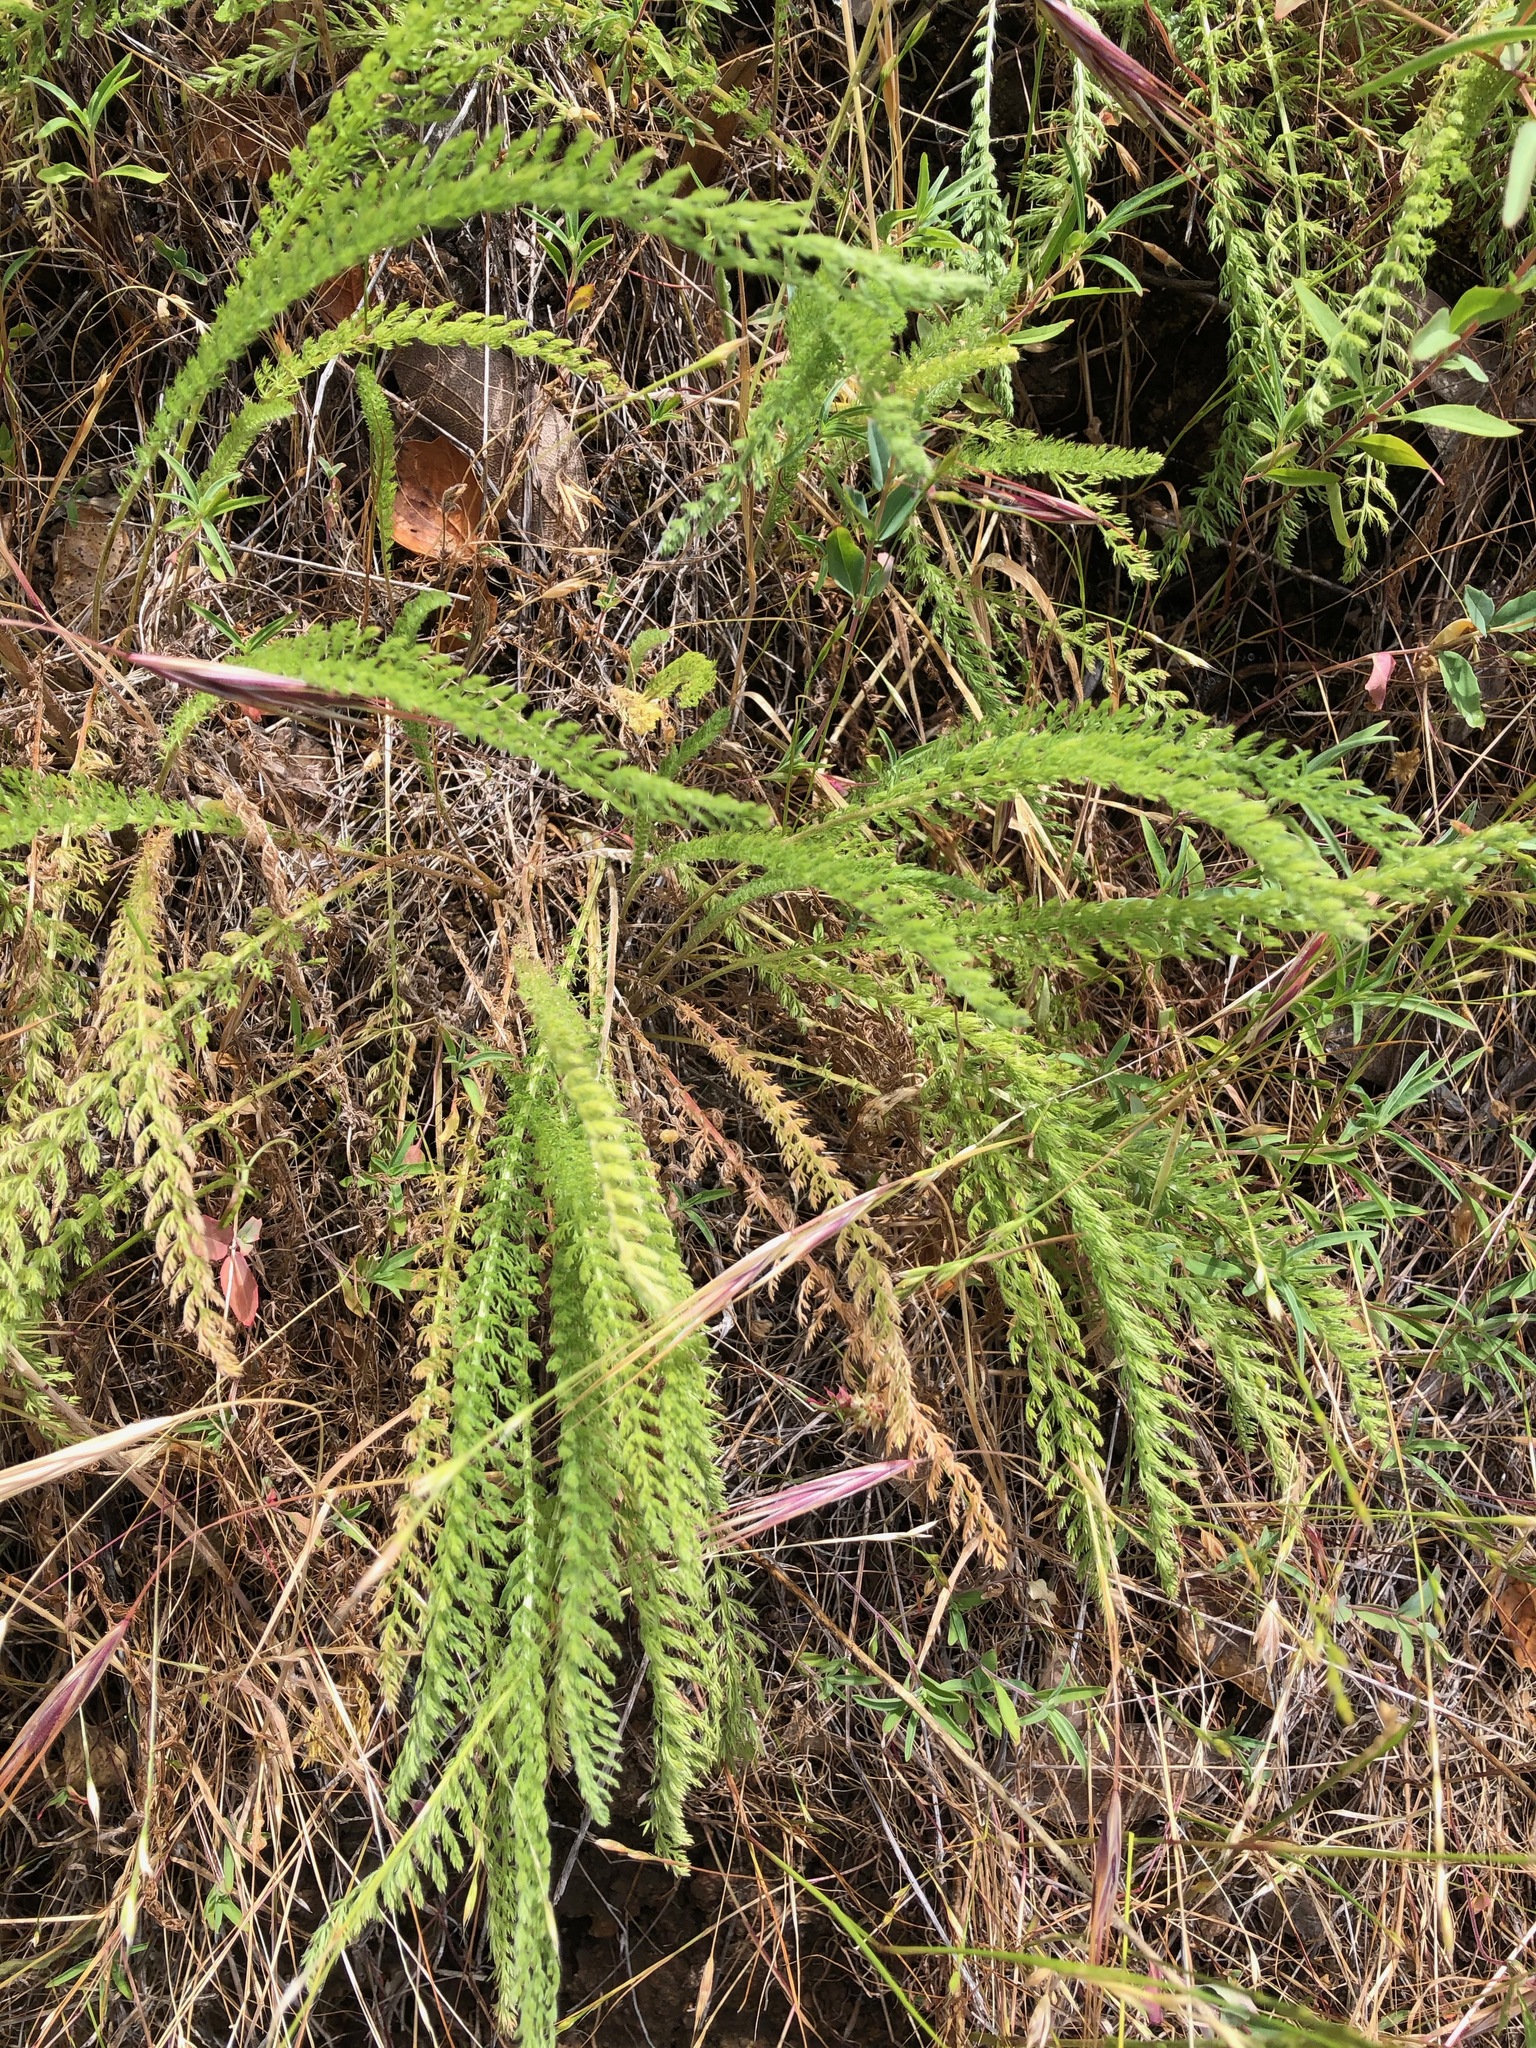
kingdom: Plantae
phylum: Tracheophyta
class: Magnoliopsida
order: Asterales
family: Asteraceae
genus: Achillea
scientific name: Achillea millefolium
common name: Yarrow
